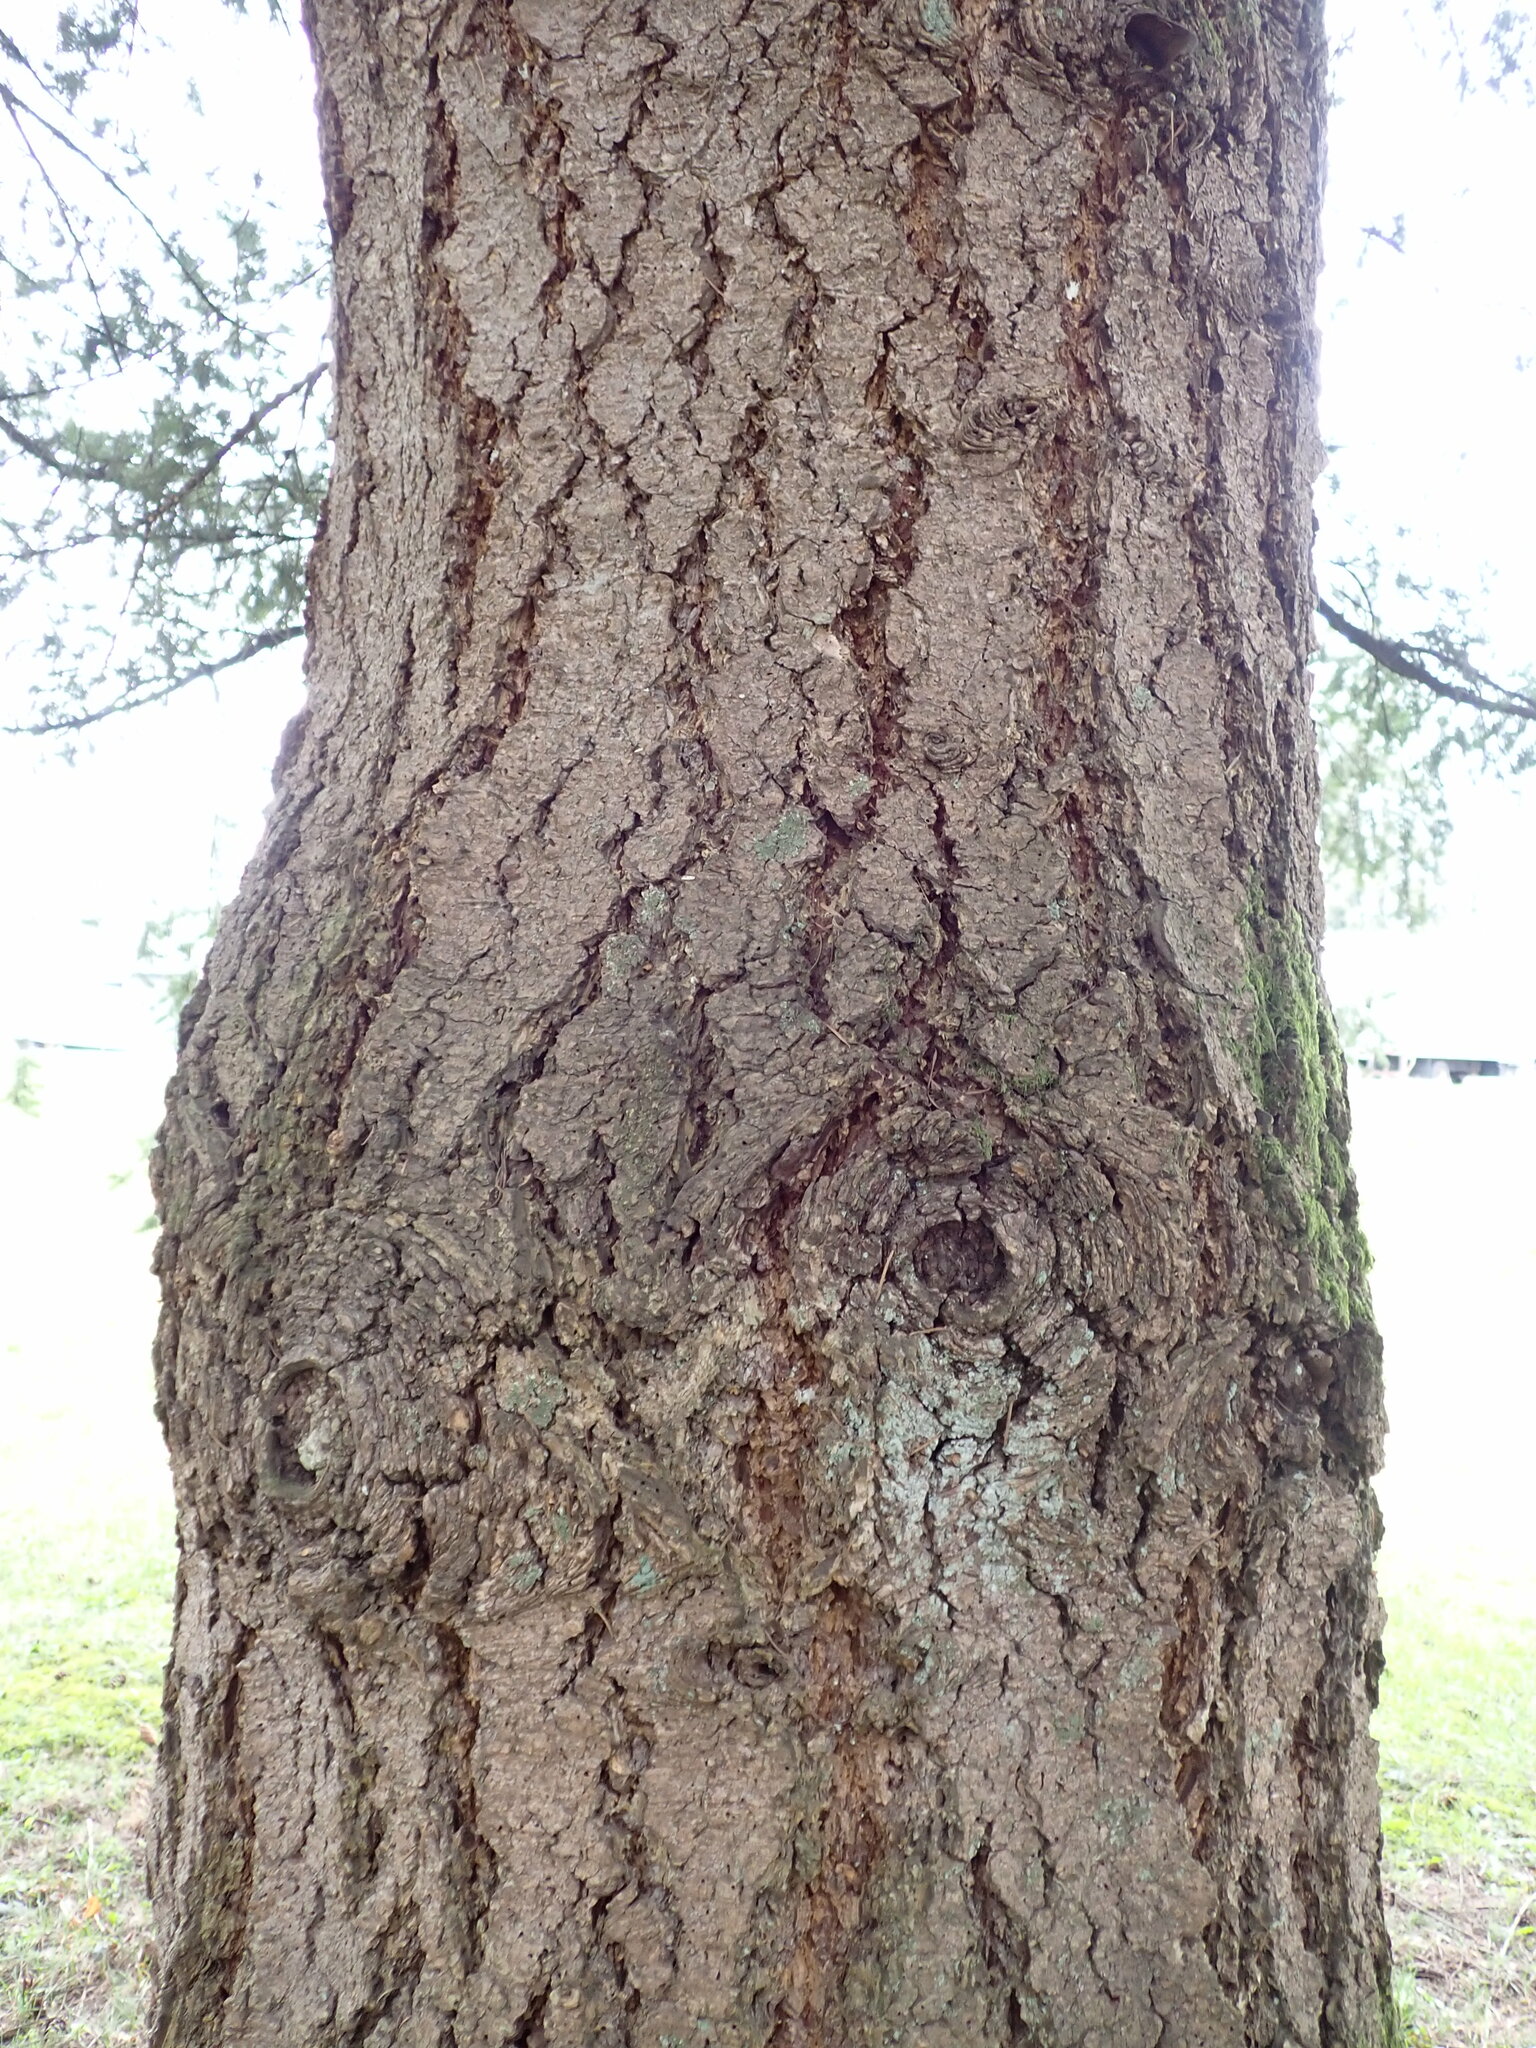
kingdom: Plantae
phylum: Tracheophyta
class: Pinopsida
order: Pinales
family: Pinaceae
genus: Pseudotsuga
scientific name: Pseudotsuga menziesii
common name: Douglas fir
